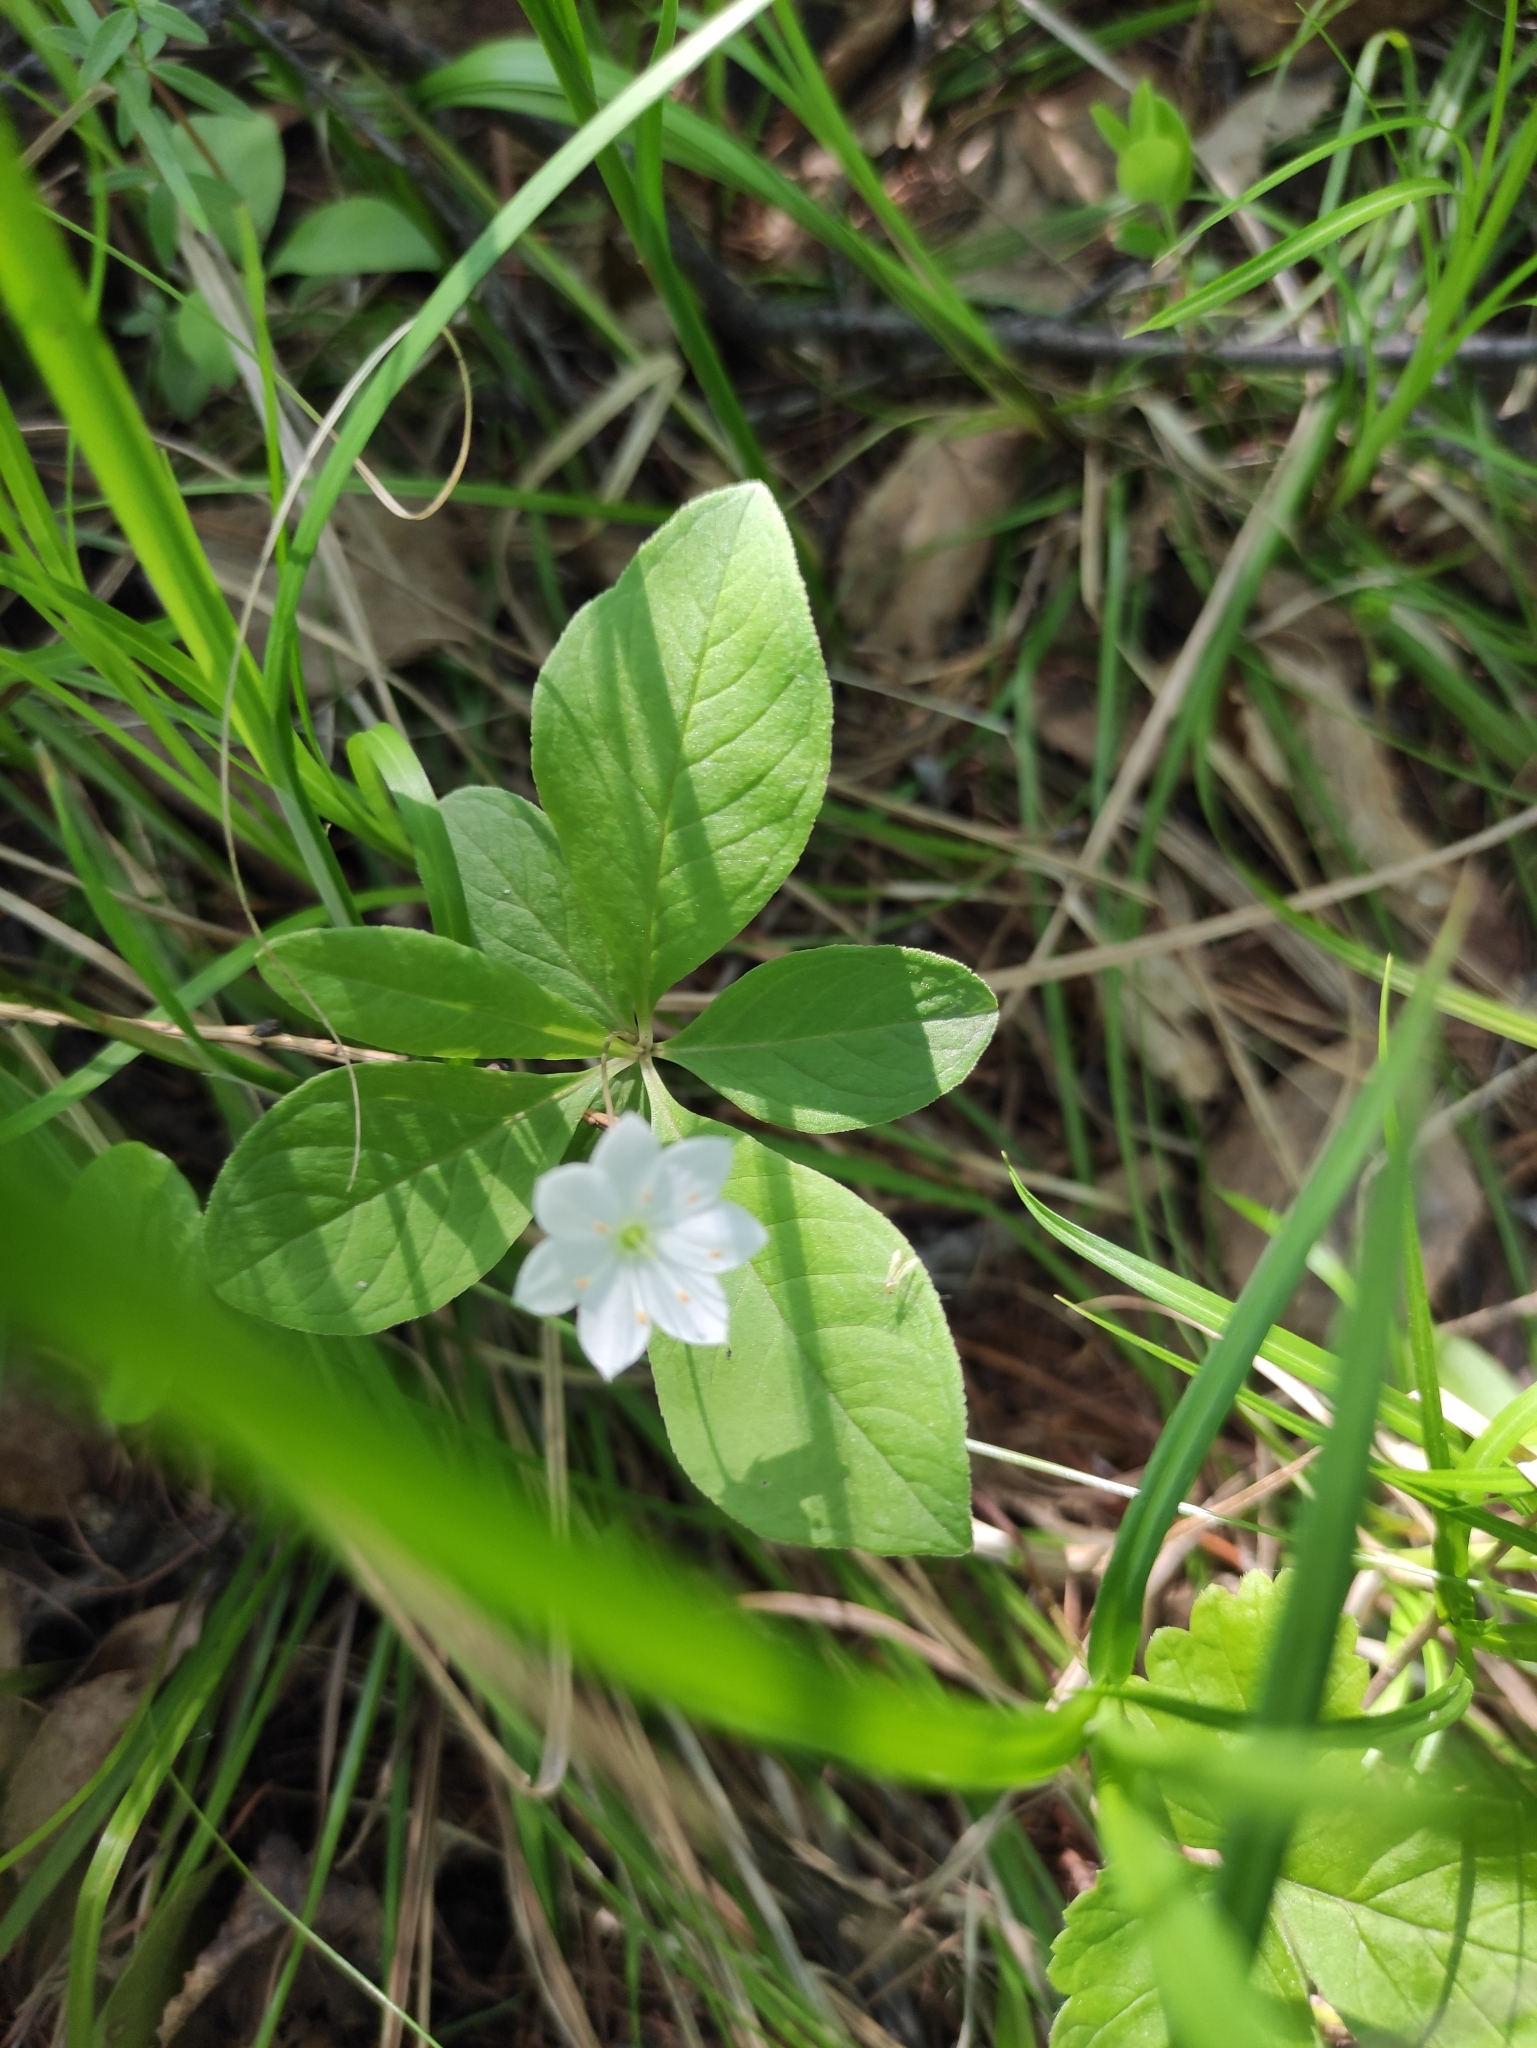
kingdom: Plantae
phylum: Tracheophyta
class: Magnoliopsida
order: Ericales
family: Primulaceae
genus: Lysimachia
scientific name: Lysimachia europaea
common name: Arctic starflower
